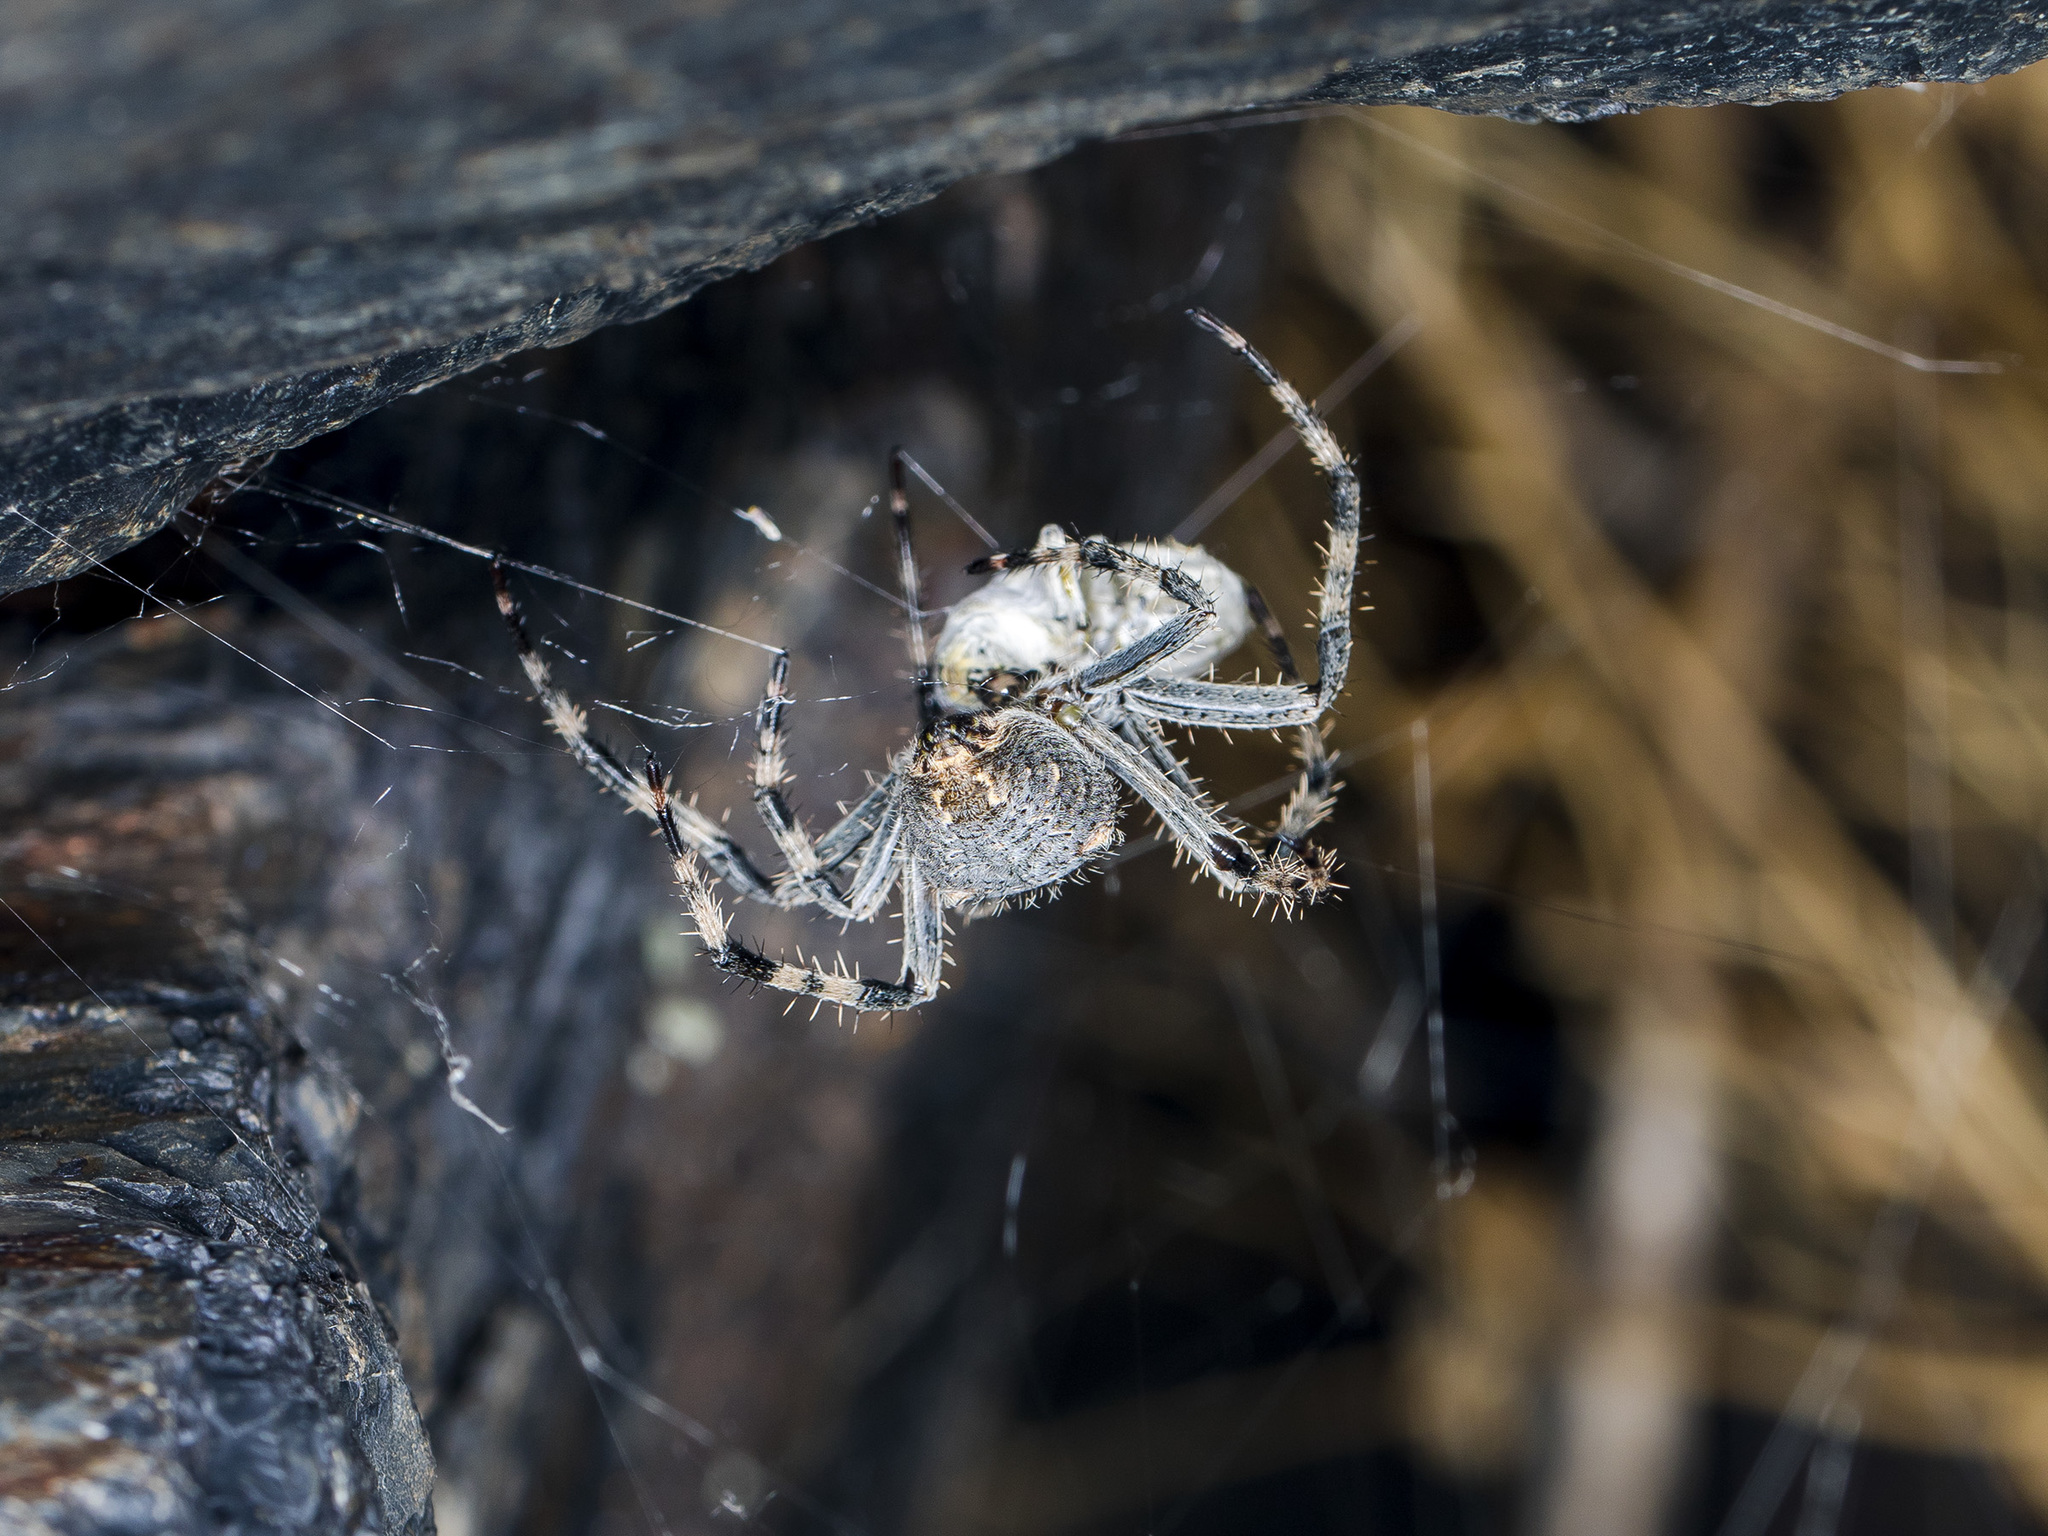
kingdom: Animalia
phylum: Arthropoda
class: Arachnida
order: Araneae
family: Araneidae
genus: Araneus
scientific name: Araneus miquanensis
